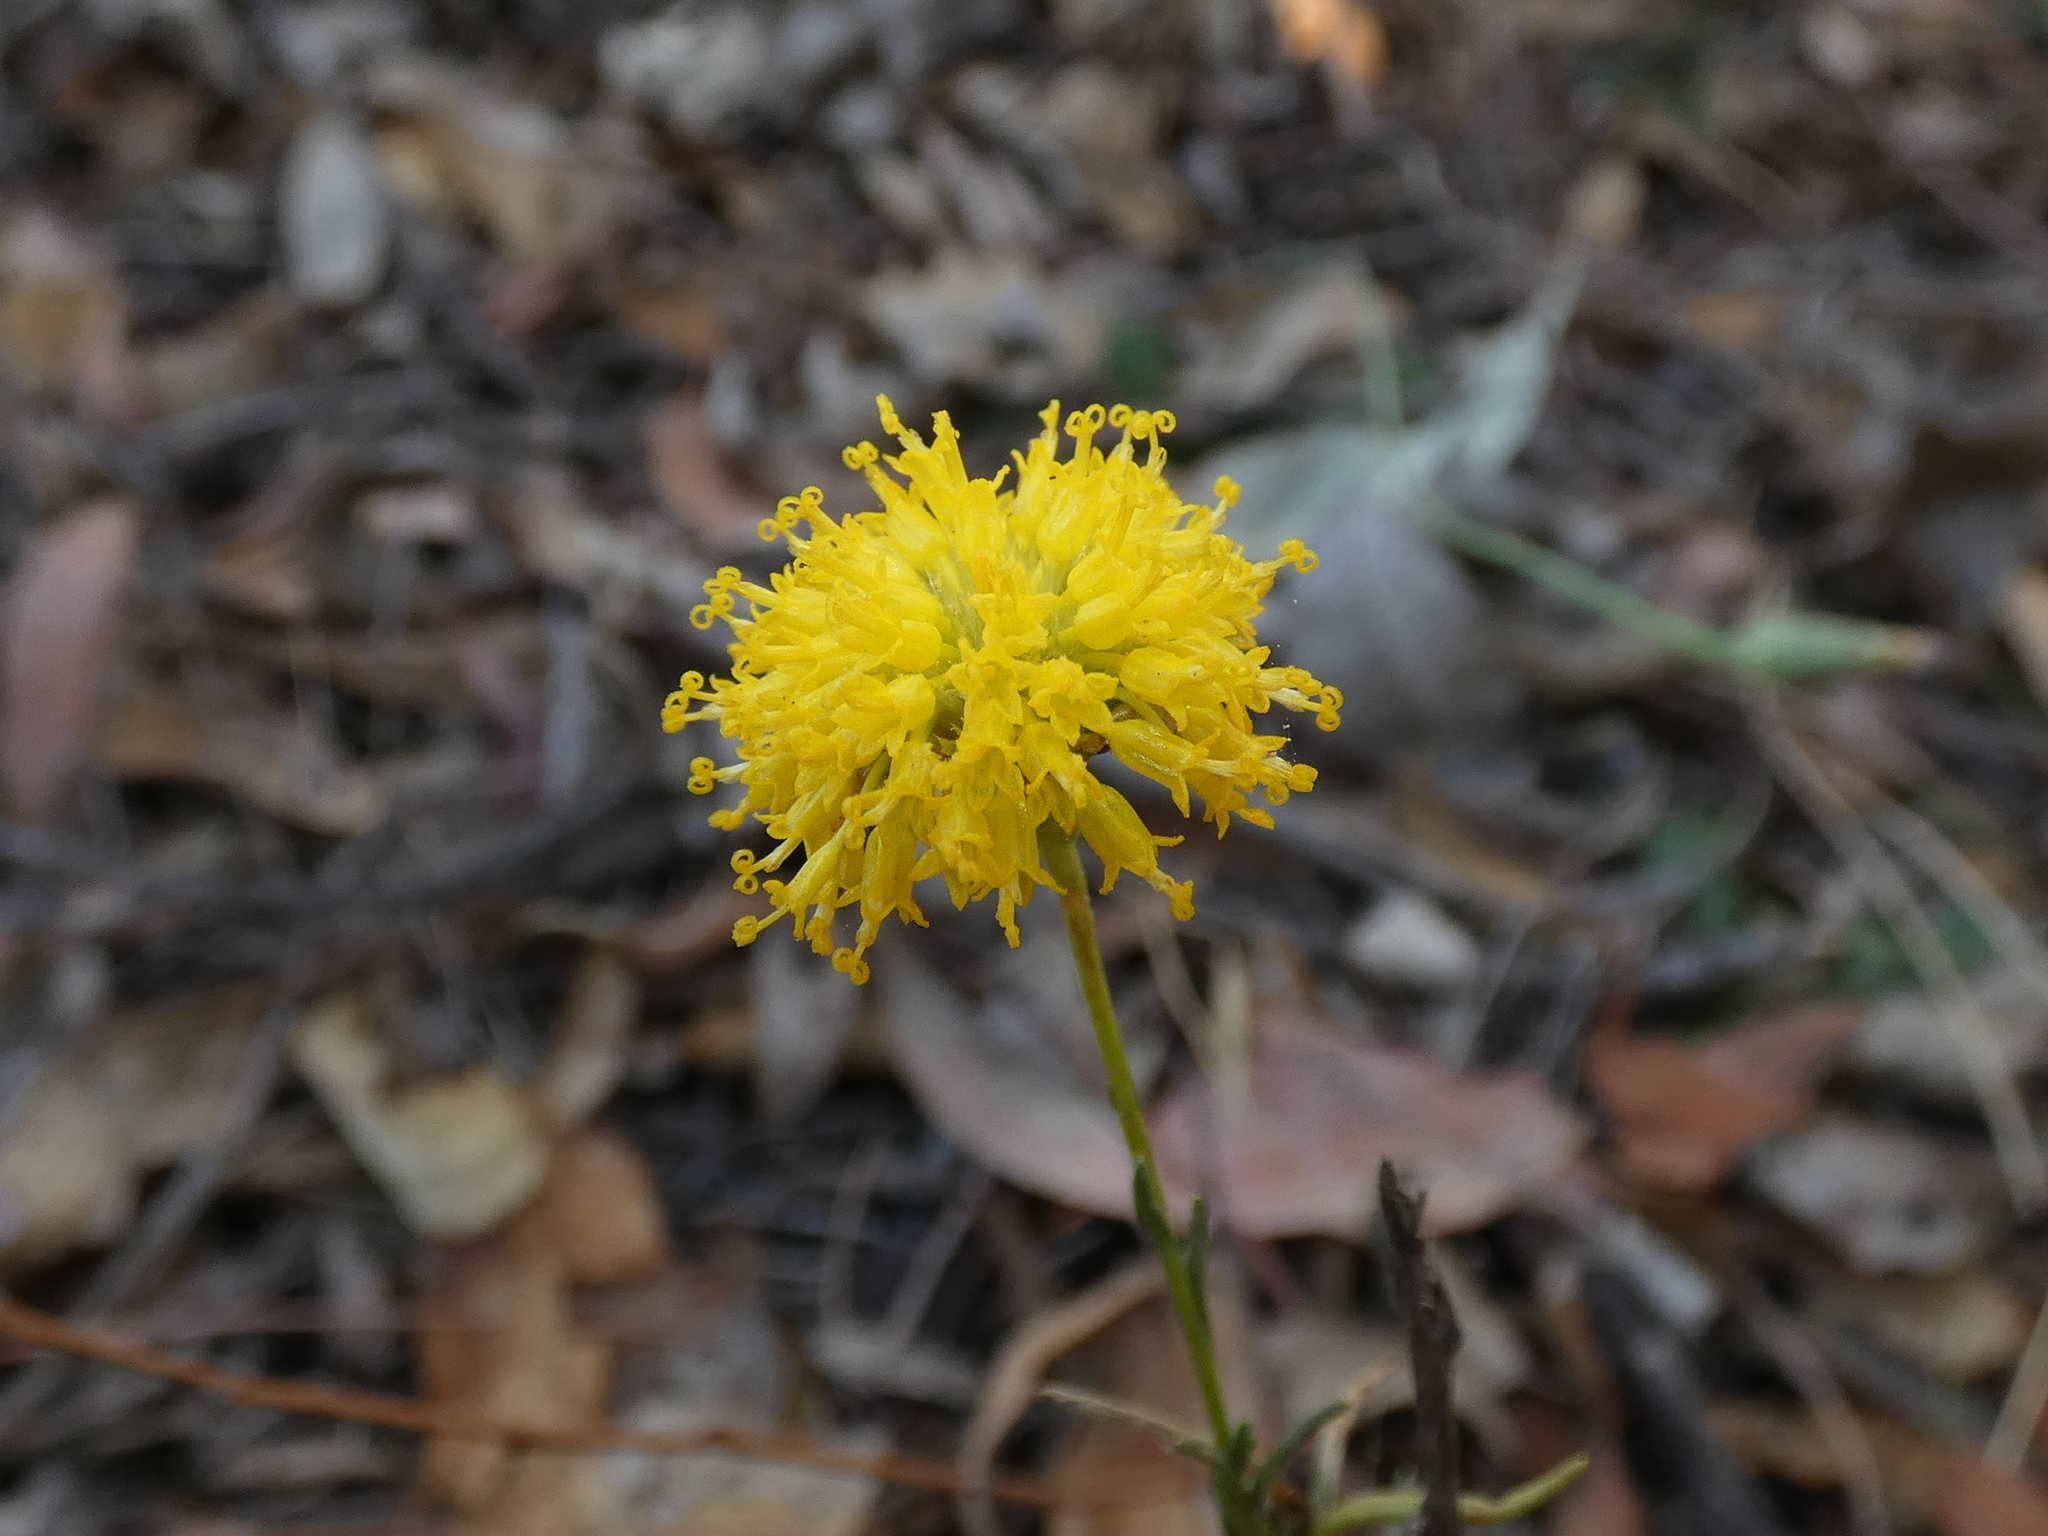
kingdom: Plantae
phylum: Tracheophyta
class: Magnoliopsida
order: Asterales
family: Asteraceae
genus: Rutidosis
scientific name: Rutidosis leptorrhynchoides
